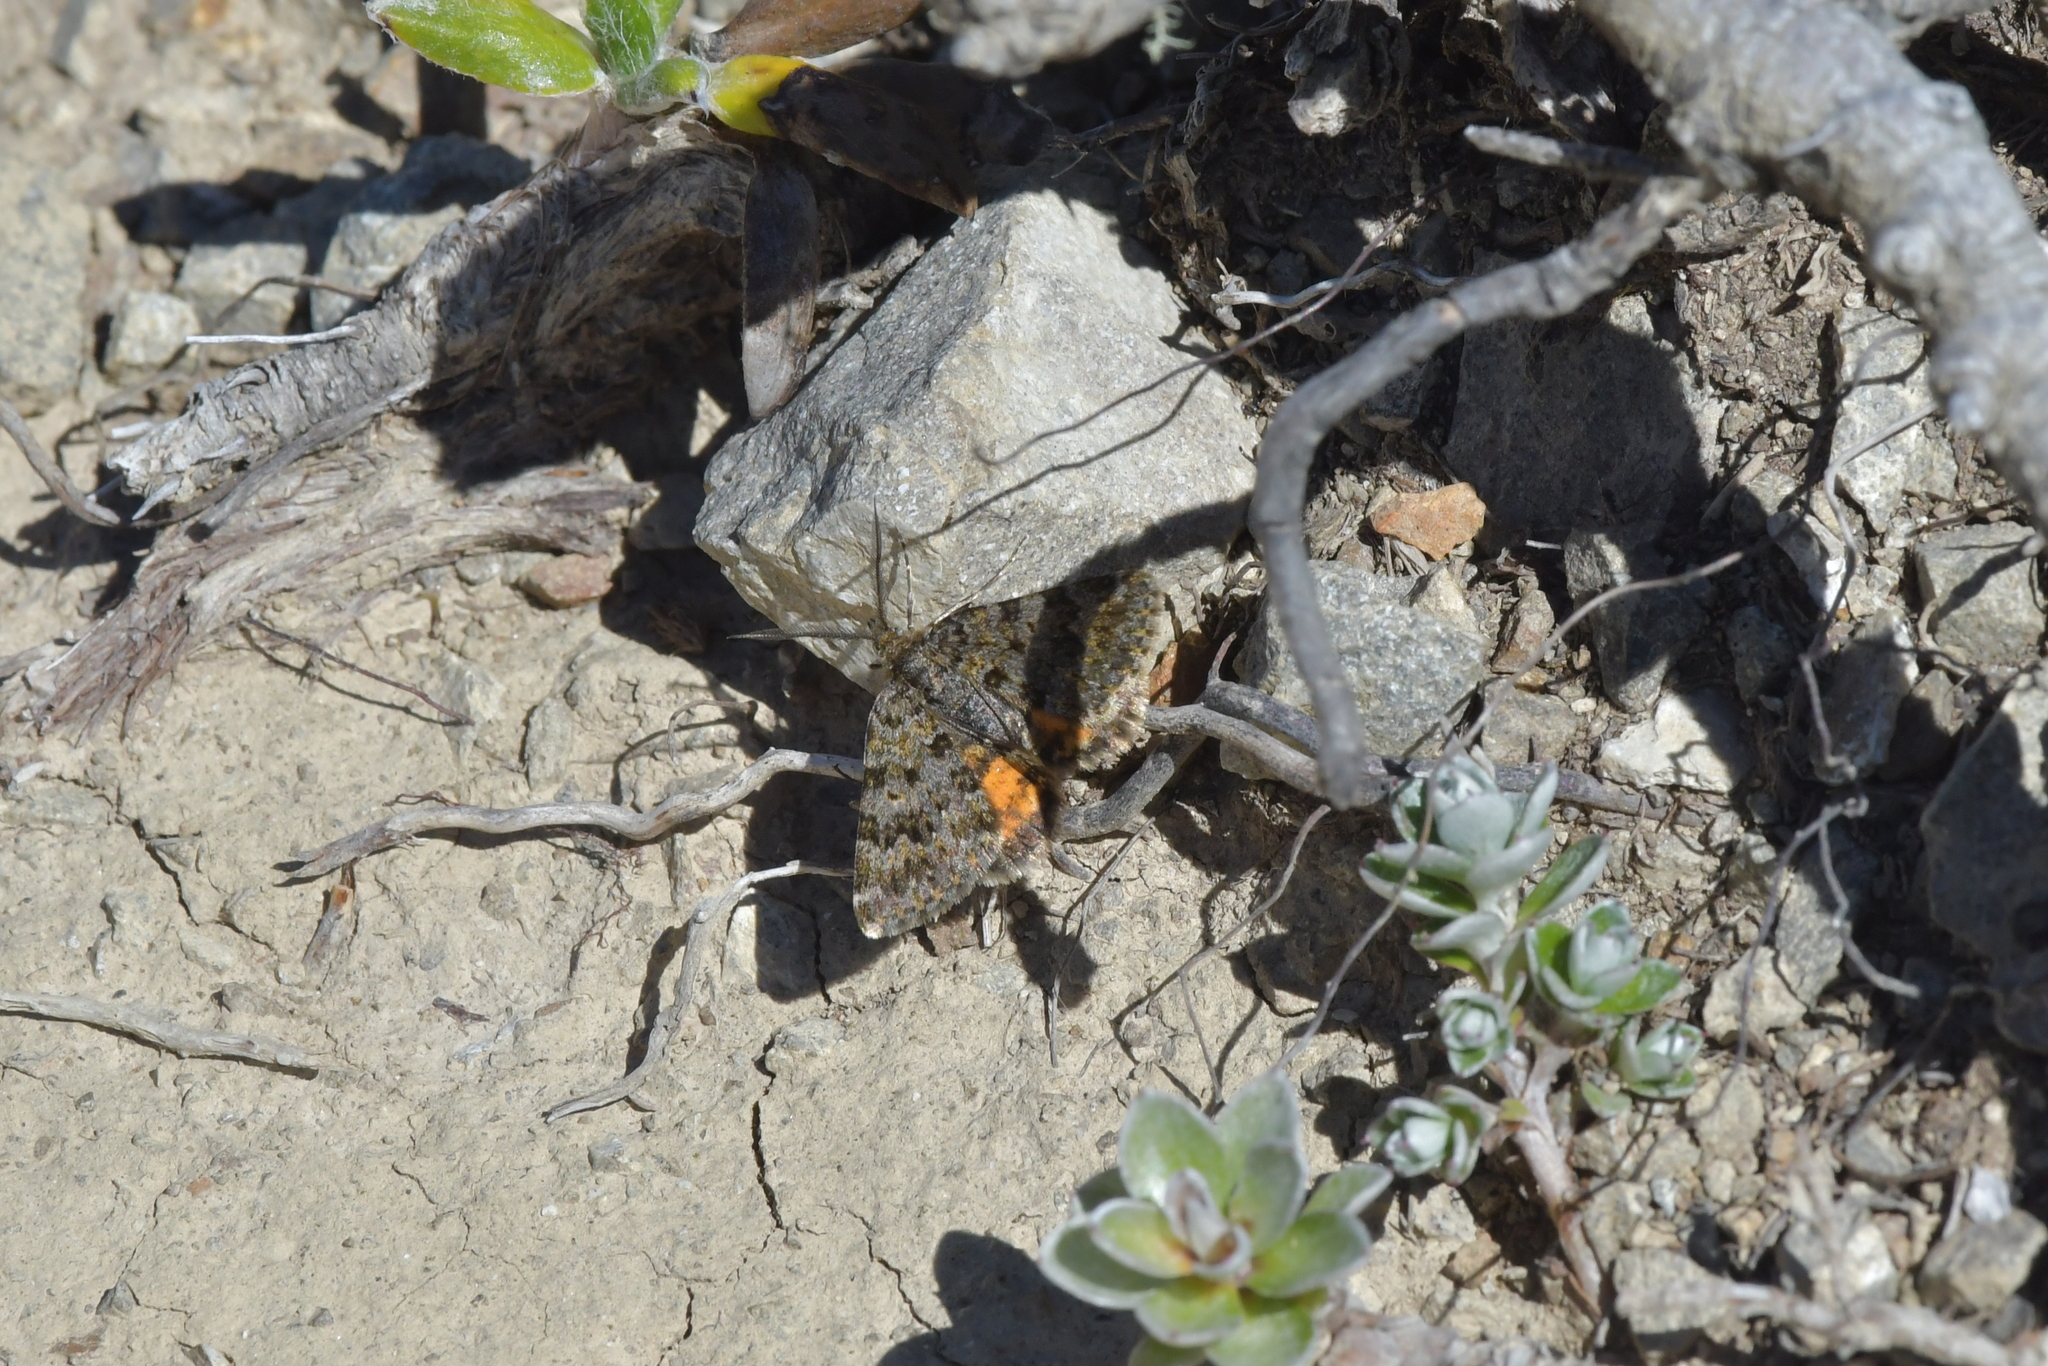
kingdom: Animalia
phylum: Arthropoda
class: Insecta
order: Lepidoptera
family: Geometridae
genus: Paranotoreas
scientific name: Paranotoreas brephosata
